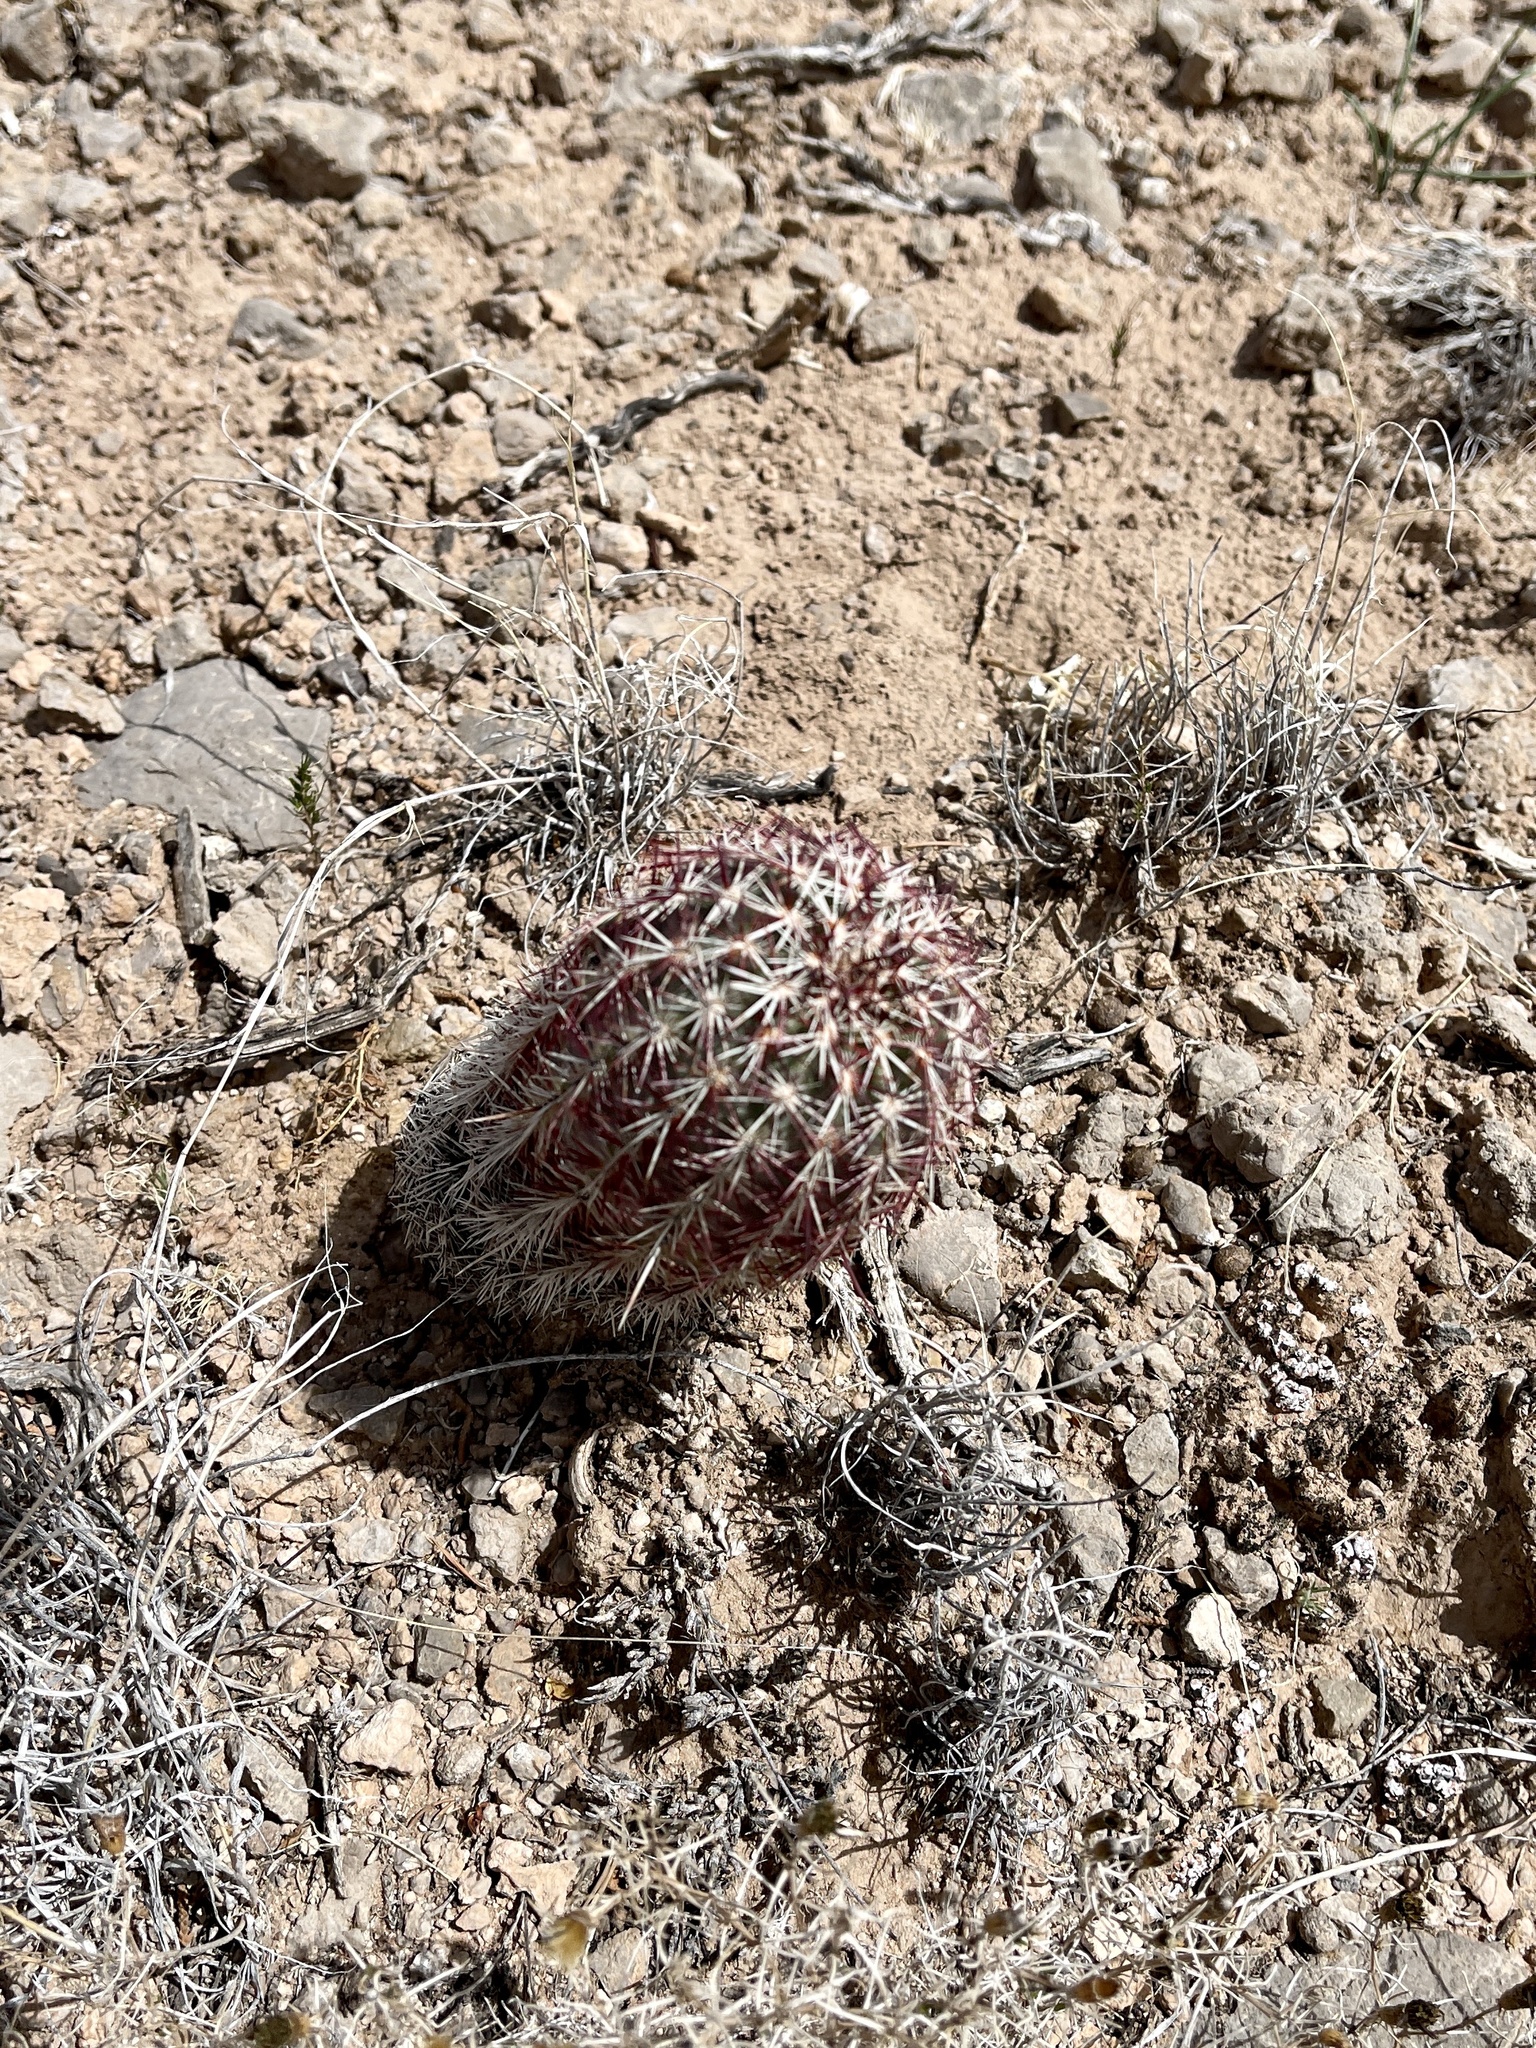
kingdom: Plantae
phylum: Tracheophyta
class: Magnoliopsida
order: Caryophyllales
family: Cactaceae
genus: Echinocereus
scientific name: Echinocereus viridiflorus
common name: Nylon hedgehog cactus
